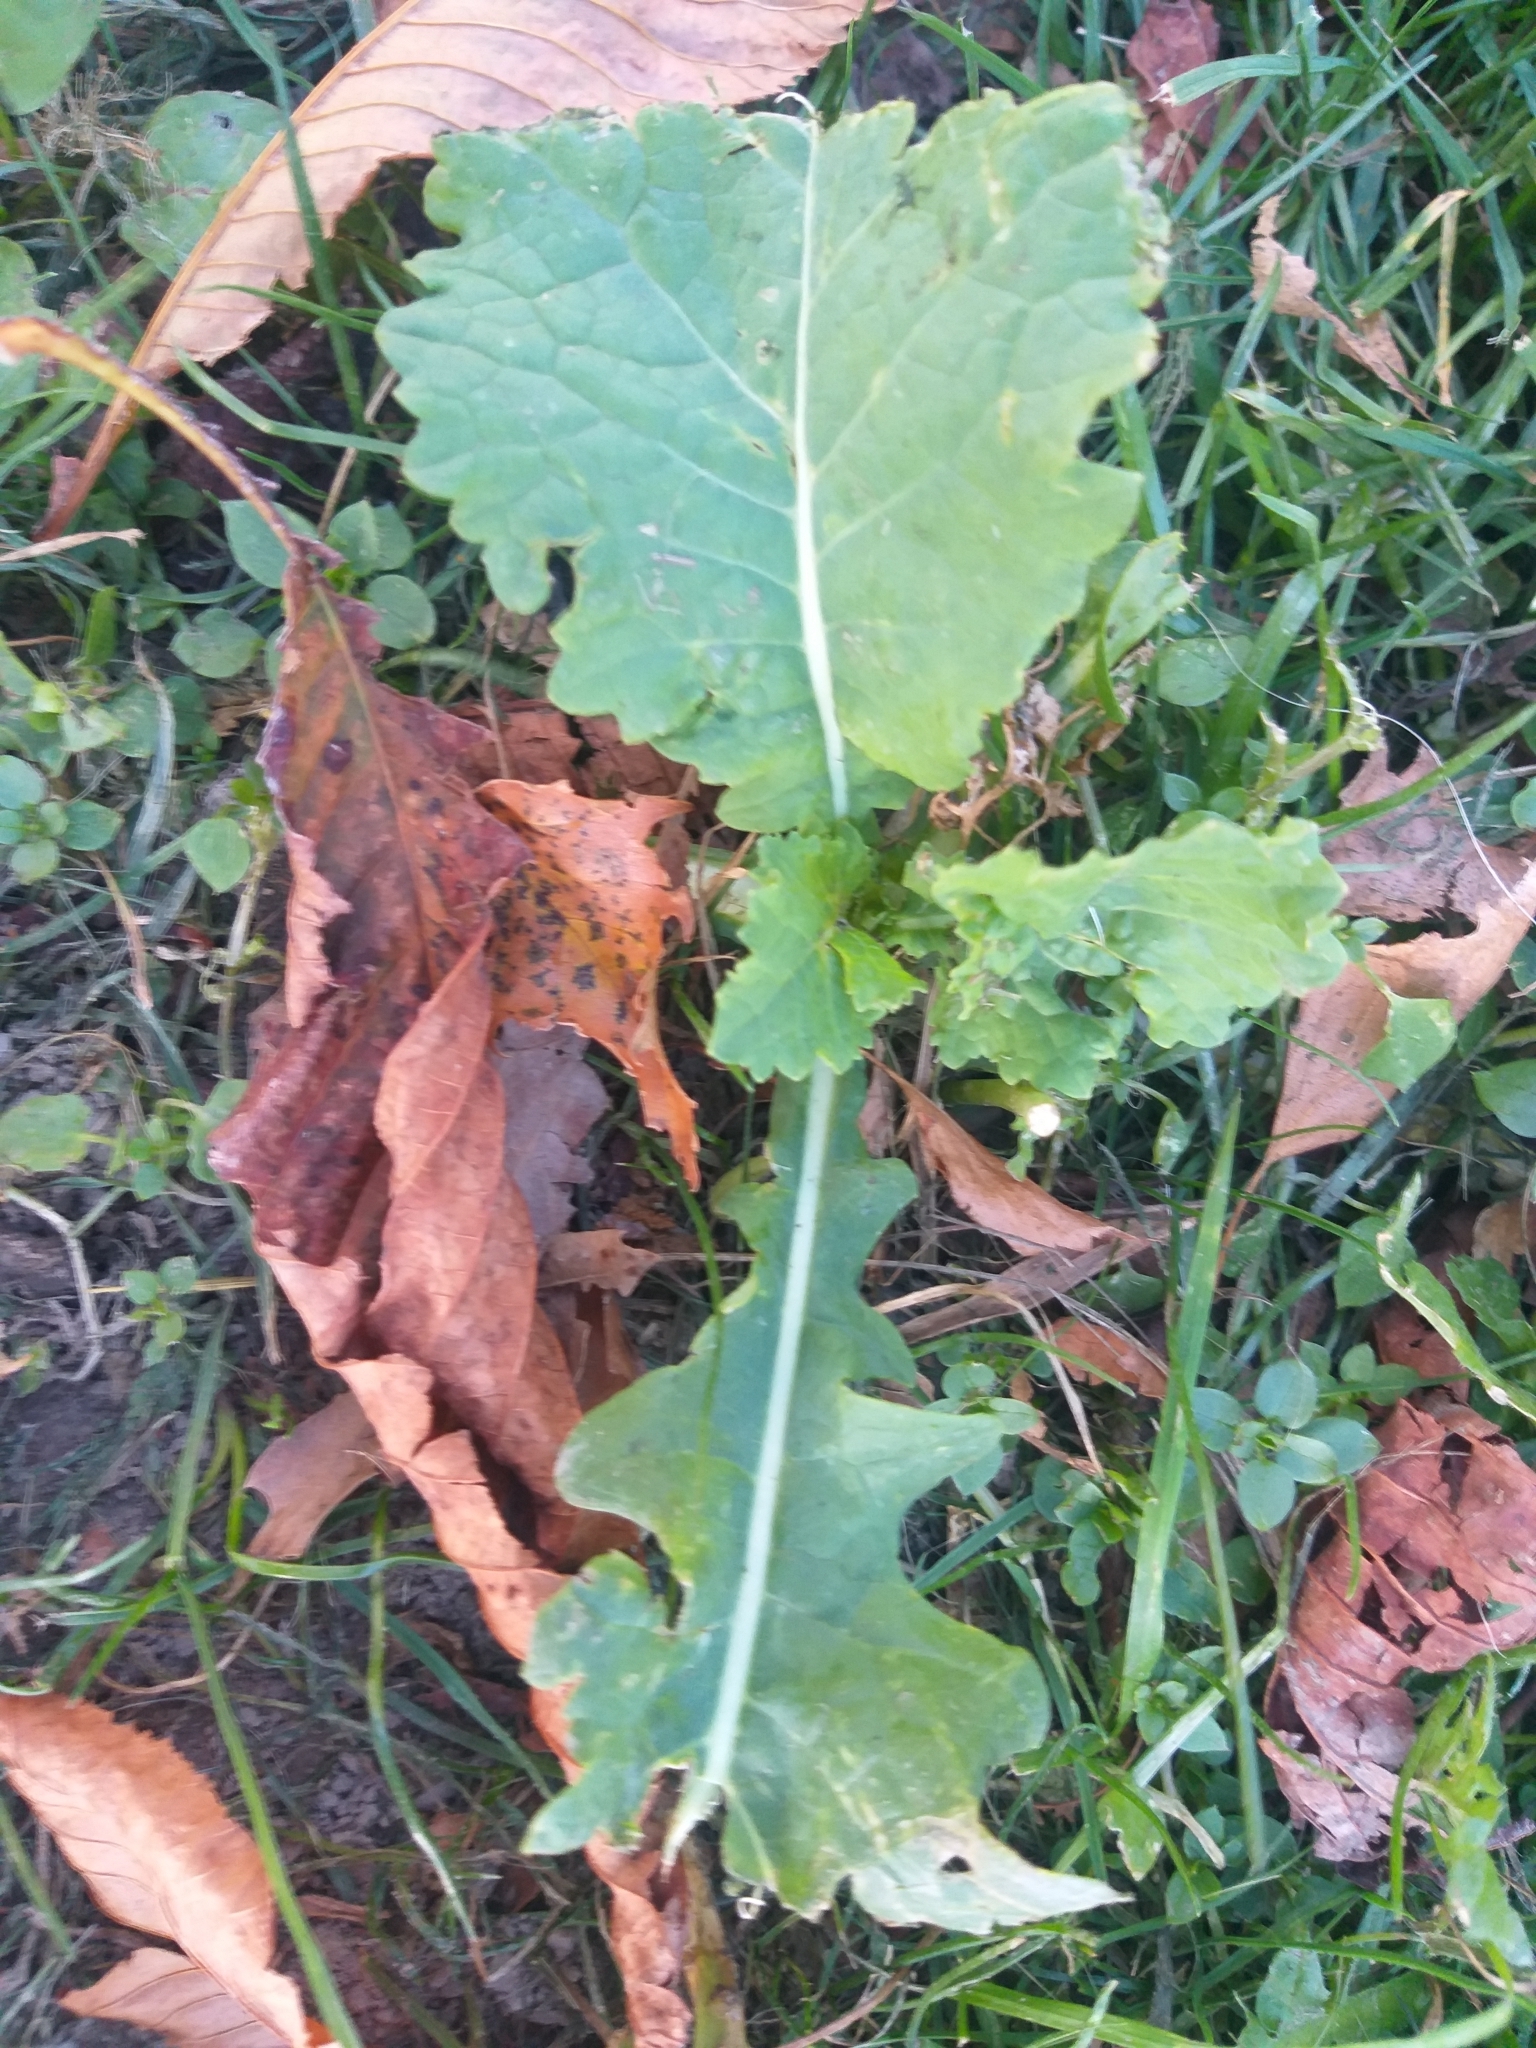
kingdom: Plantae
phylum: Tracheophyta
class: Magnoliopsida
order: Brassicales
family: Brassicaceae
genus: Brassica
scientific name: Brassica oleracea
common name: Cabbage
